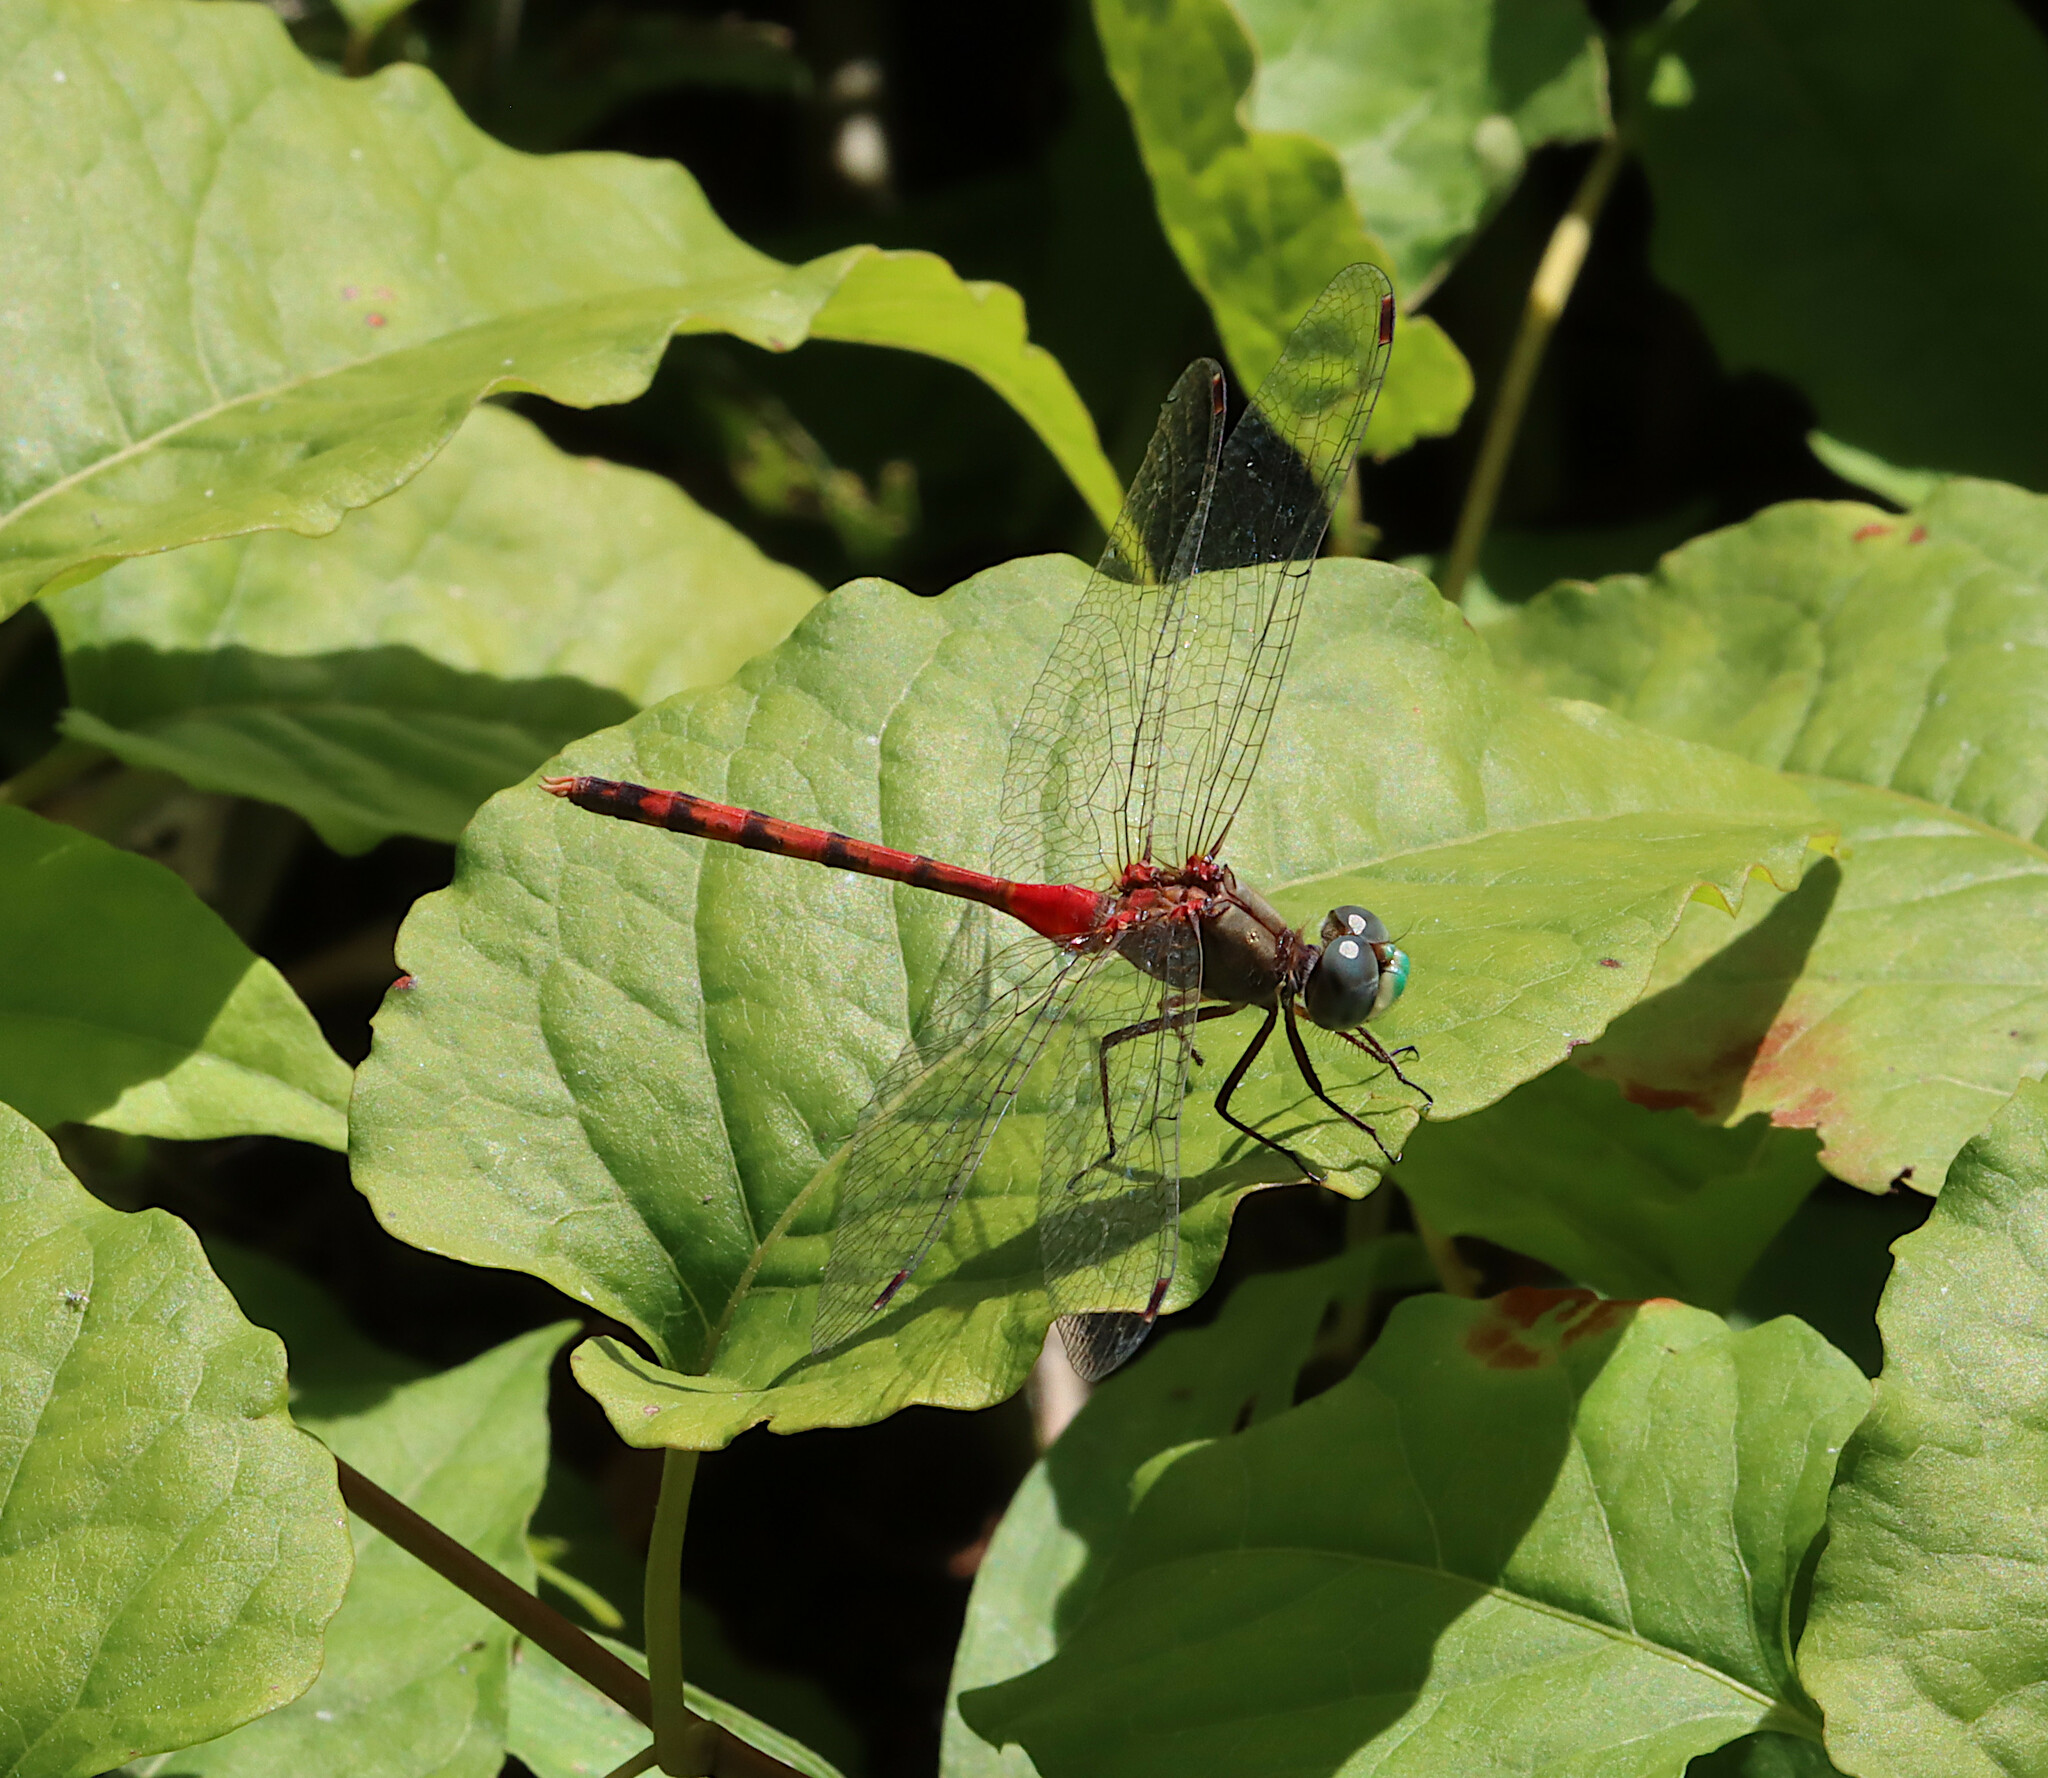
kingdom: Animalia
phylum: Arthropoda
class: Insecta
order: Odonata
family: Libellulidae
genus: Sympetrum
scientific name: Sympetrum ambiguum
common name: Blue-faced meadowhawk
